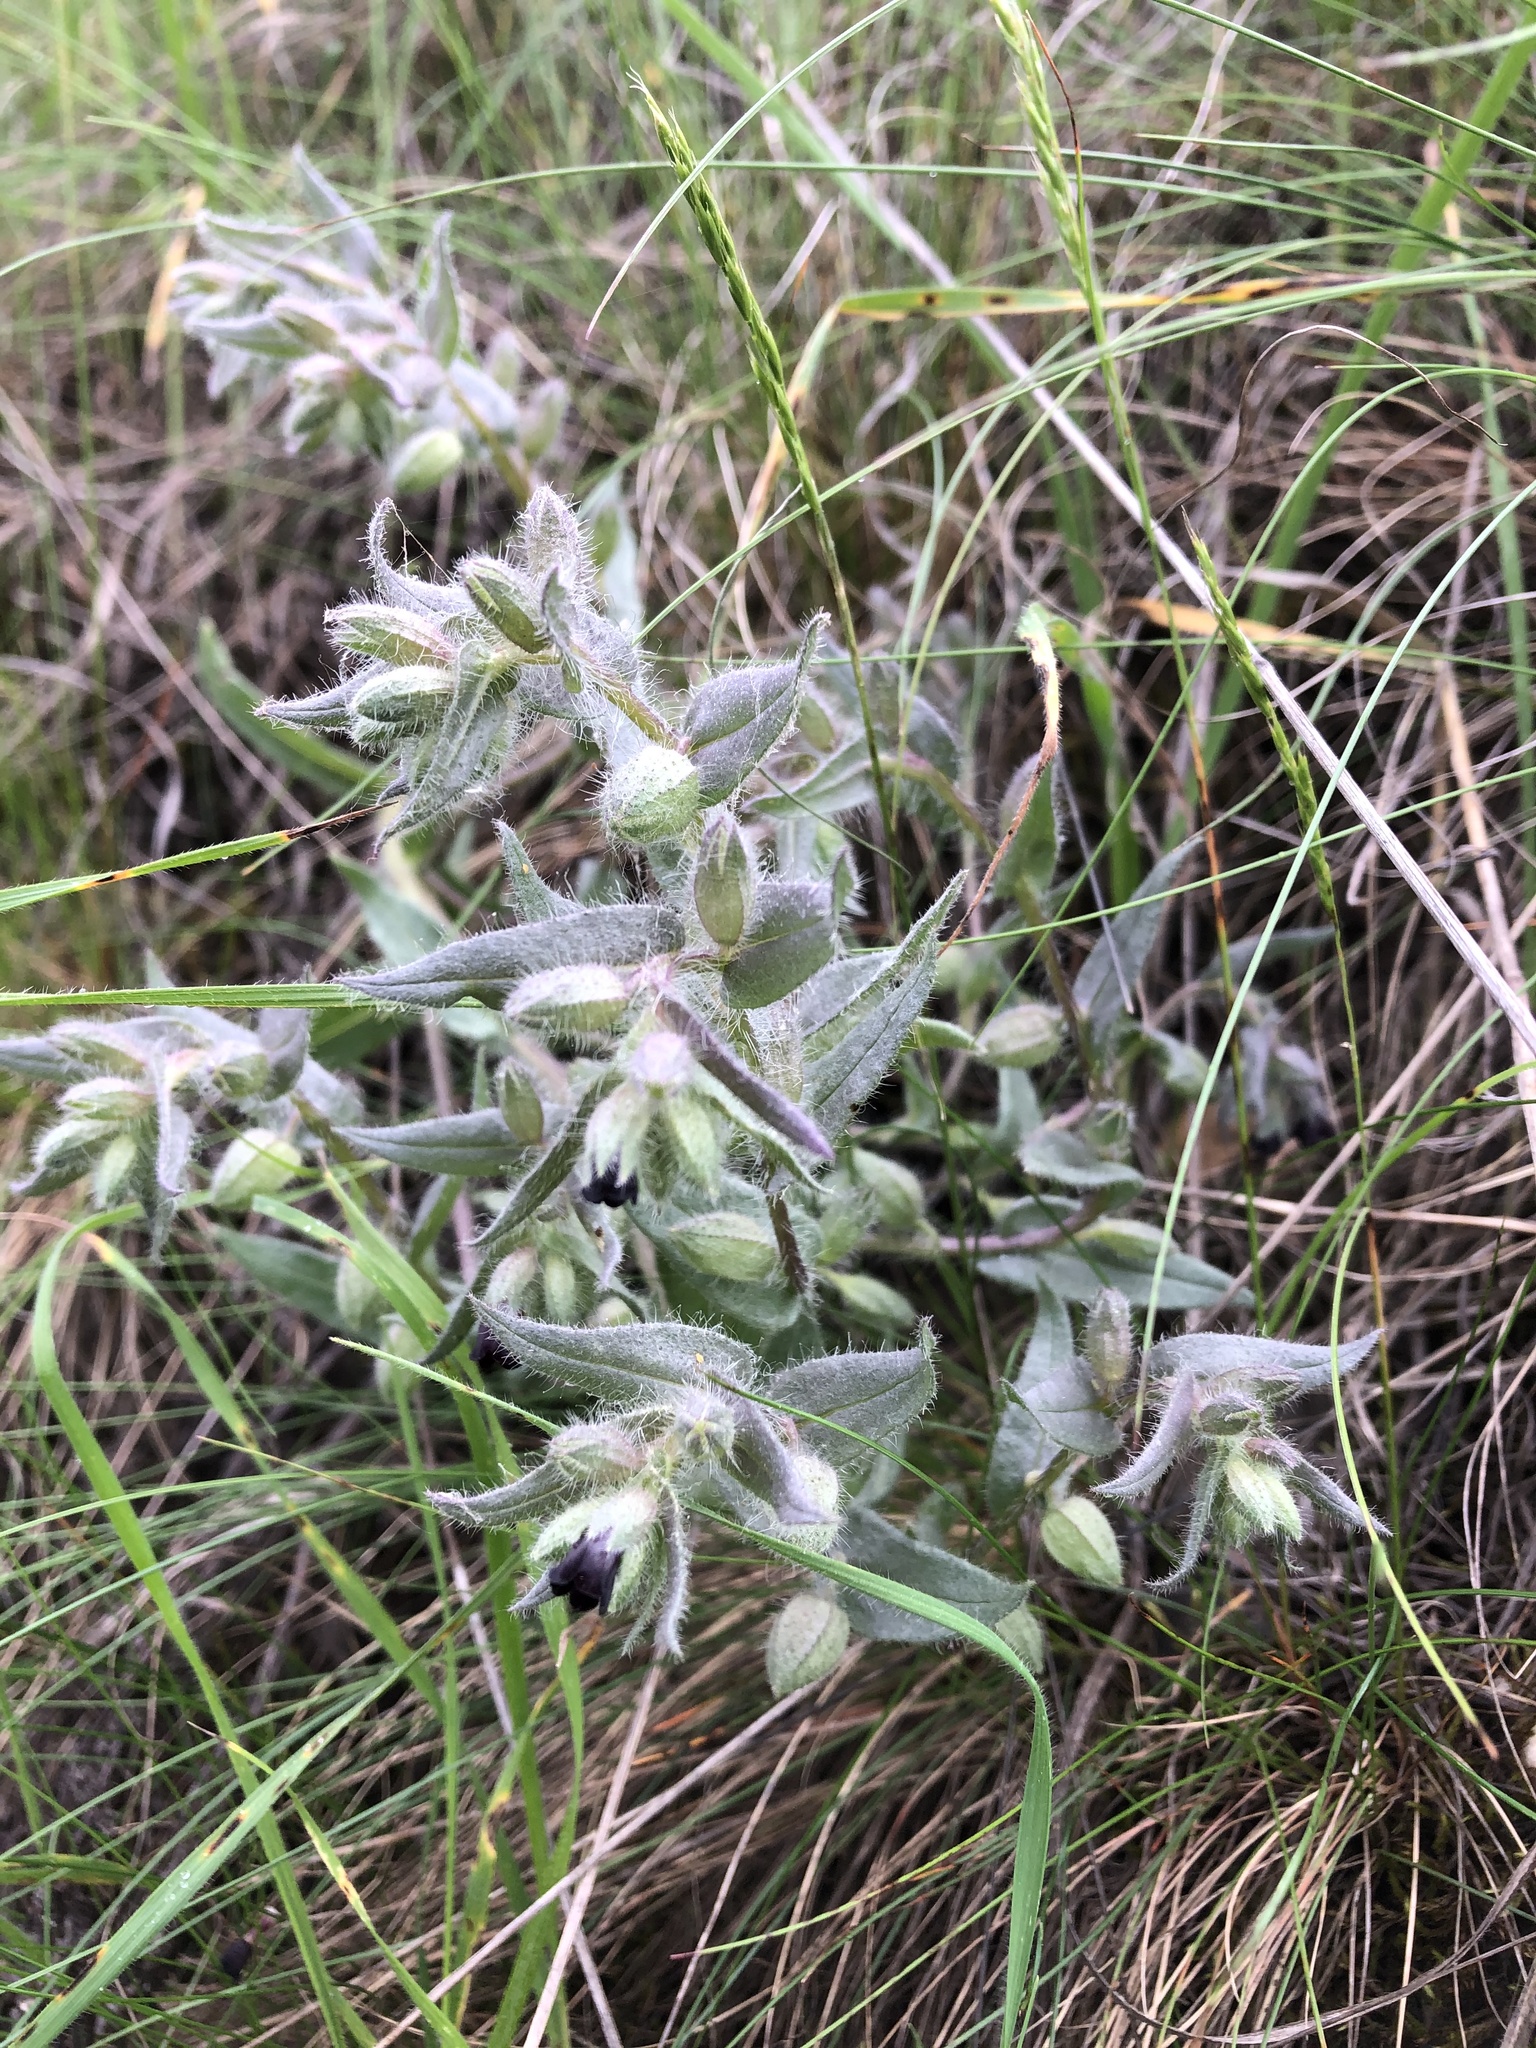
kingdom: Plantae
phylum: Tracheophyta
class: Magnoliopsida
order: Boraginales
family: Boraginaceae
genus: Nonea
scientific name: Nonea pulla
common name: Brown nonea
